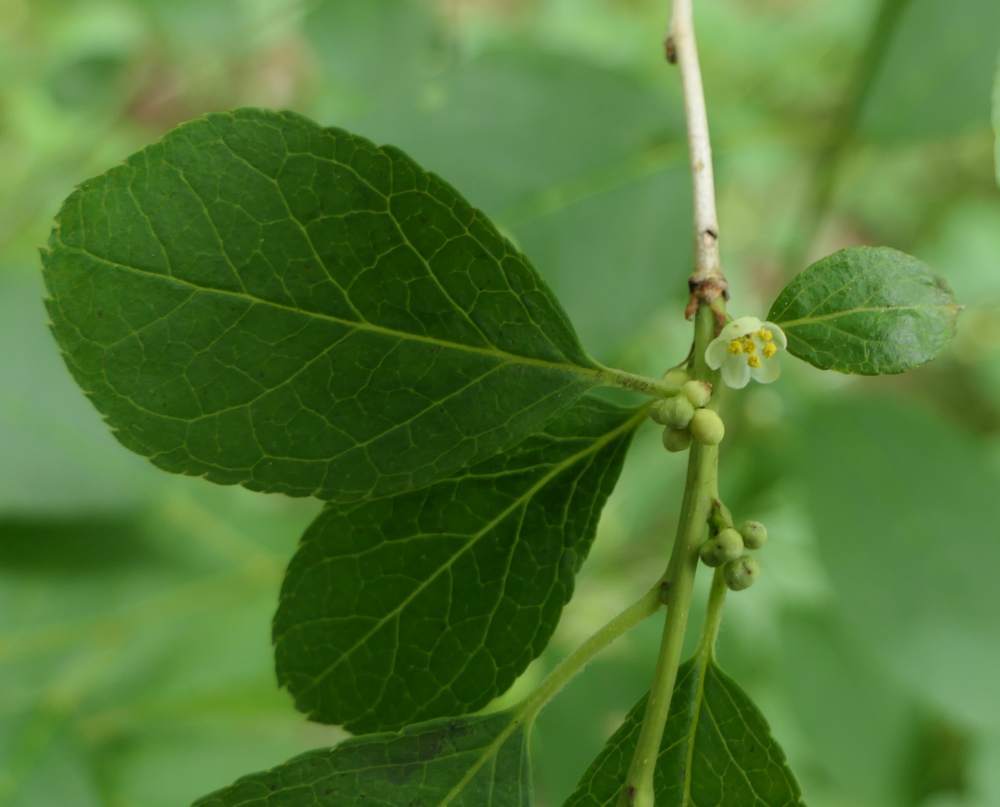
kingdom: Plantae
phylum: Tracheophyta
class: Magnoliopsida
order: Aquifoliales
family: Aquifoliaceae
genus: Ilex
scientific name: Ilex verticillata
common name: Virginia winterberry
